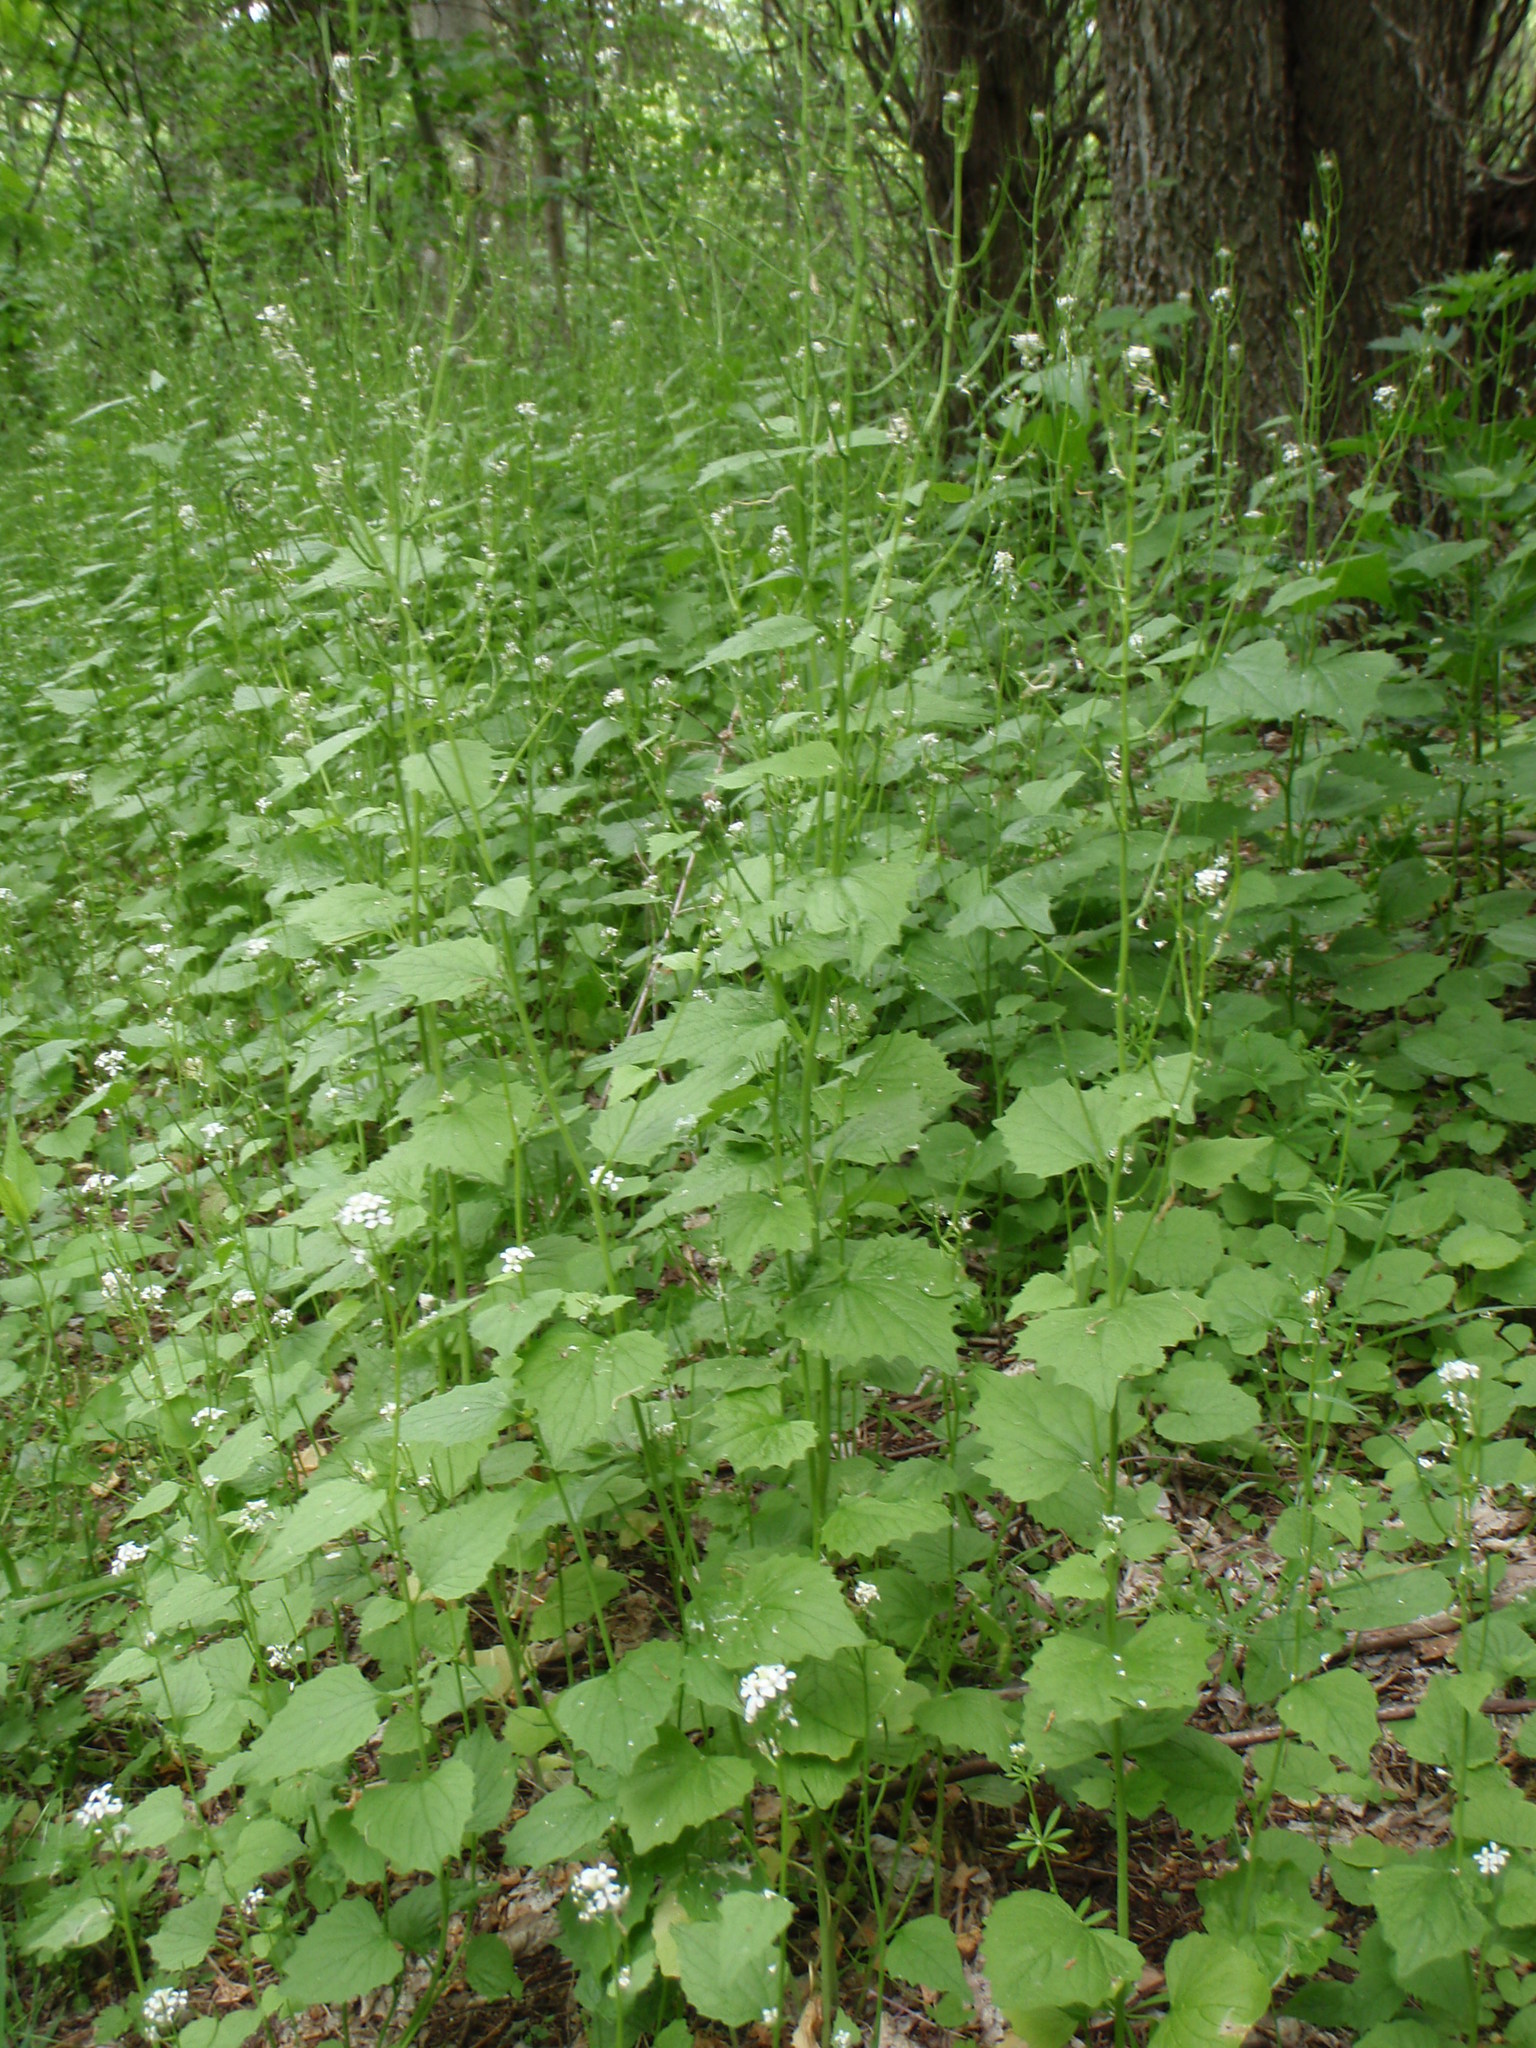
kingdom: Plantae
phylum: Tracheophyta
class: Magnoliopsida
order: Brassicales
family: Brassicaceae
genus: Alliaria
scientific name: Alliaria petiolata
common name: Garlic mustard
